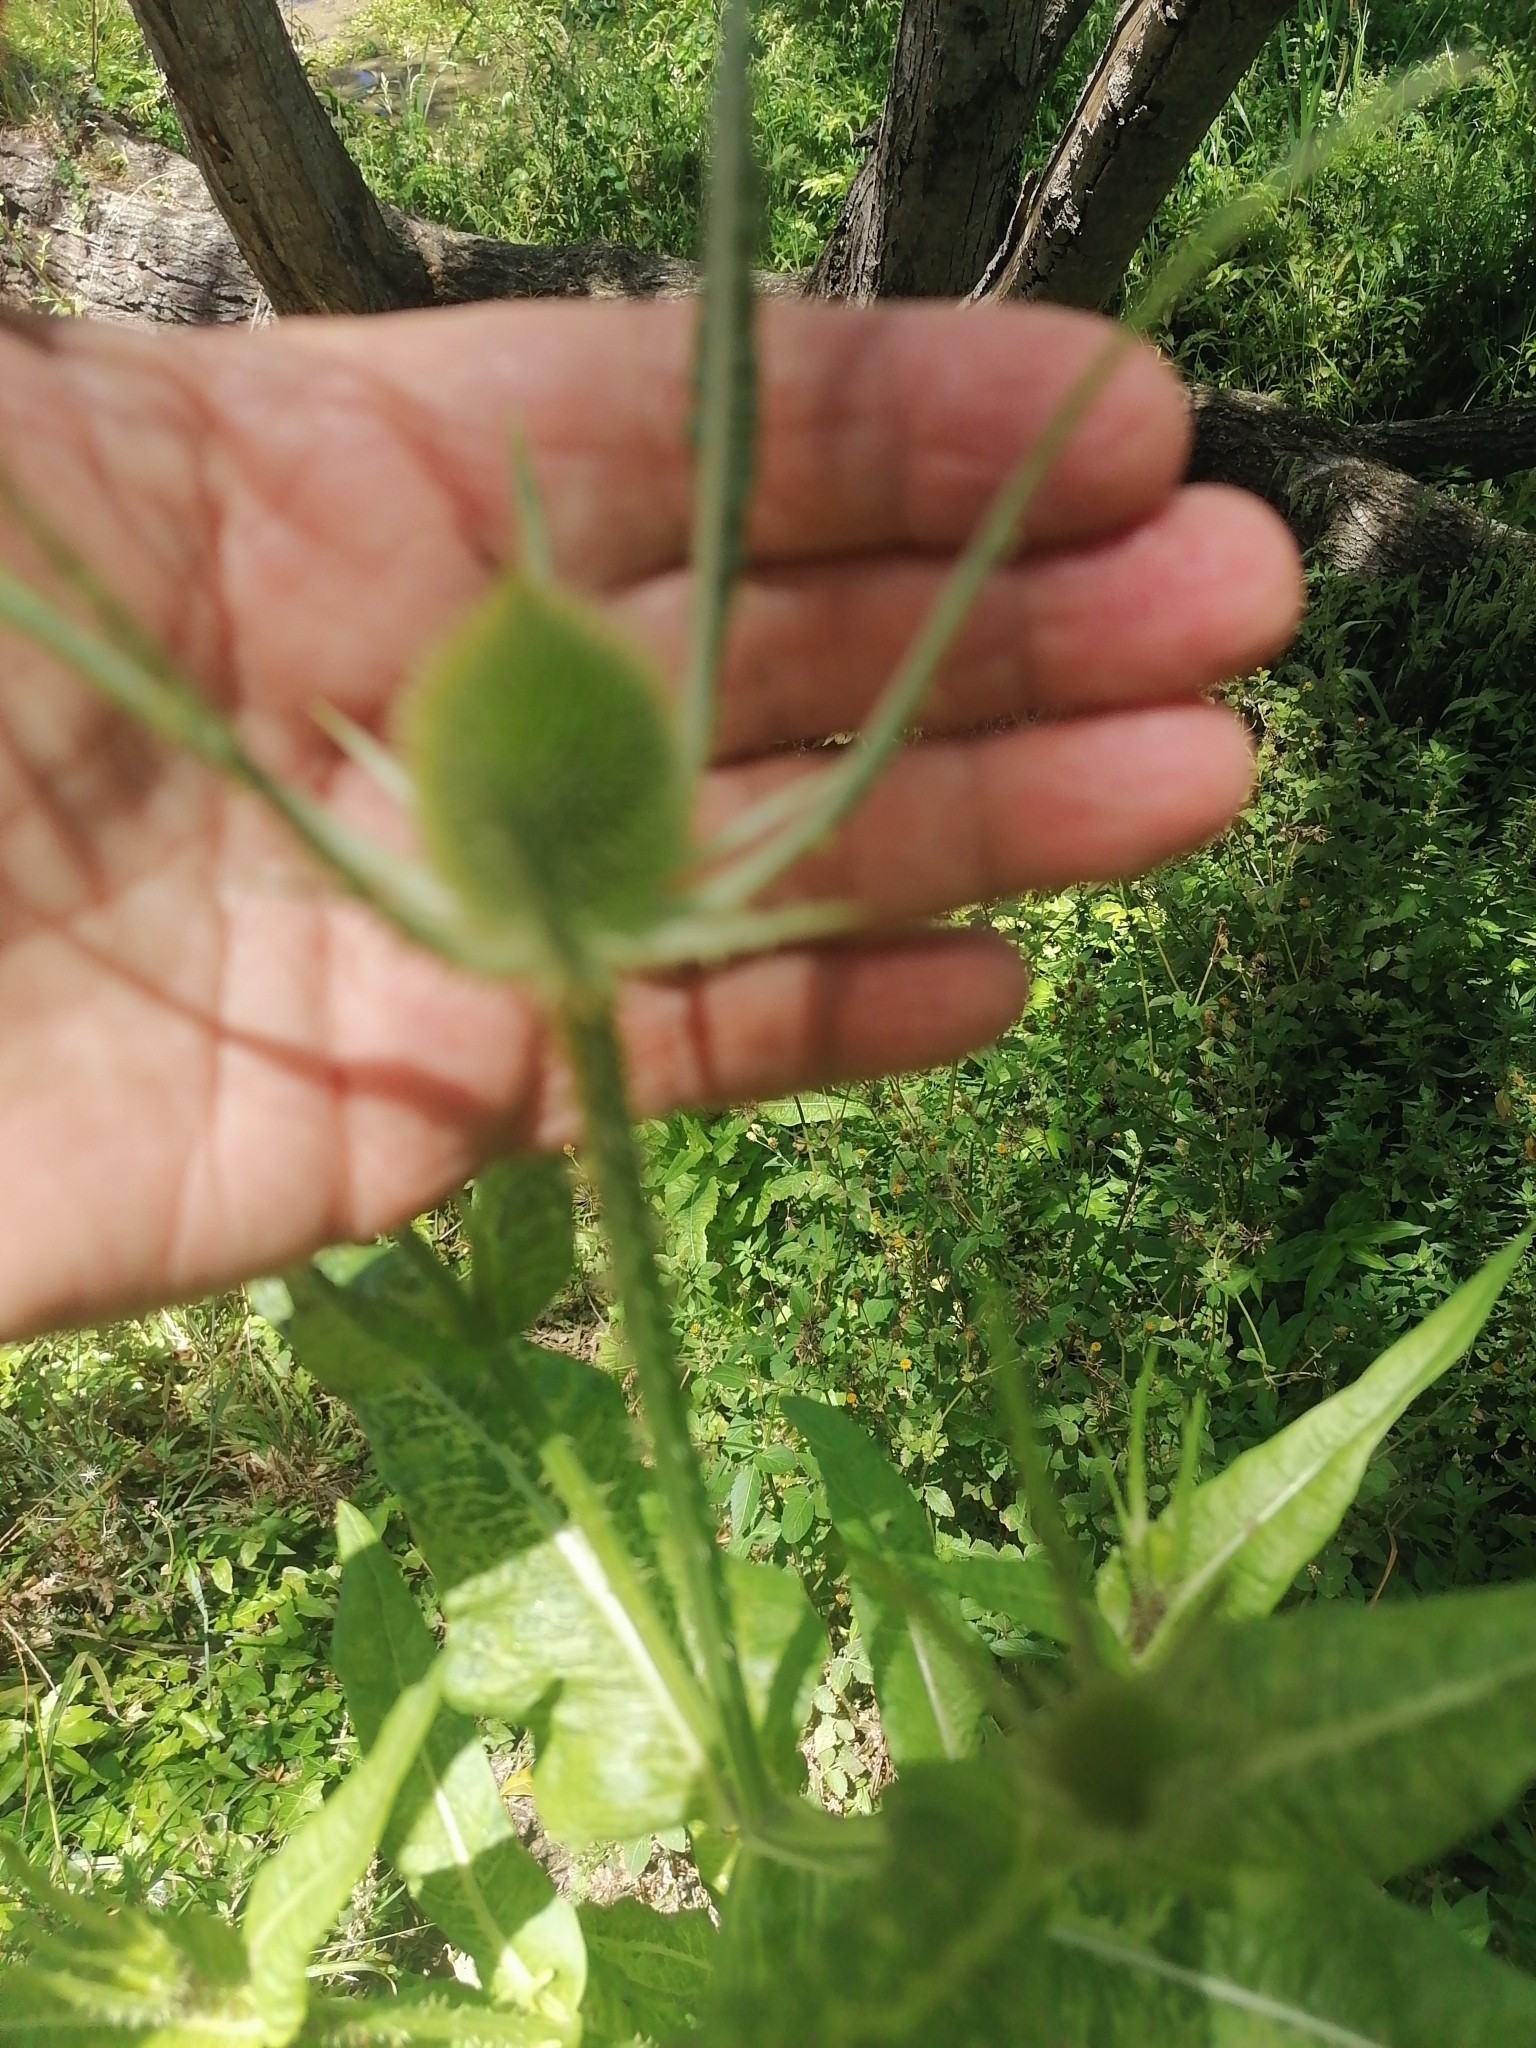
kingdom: Plantae
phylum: Tracheophyta
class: Magnoliopsida
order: Dipsacales
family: Caprifoliaceae
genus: Dipsacus
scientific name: Dipsacus fullonum
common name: Teasel
